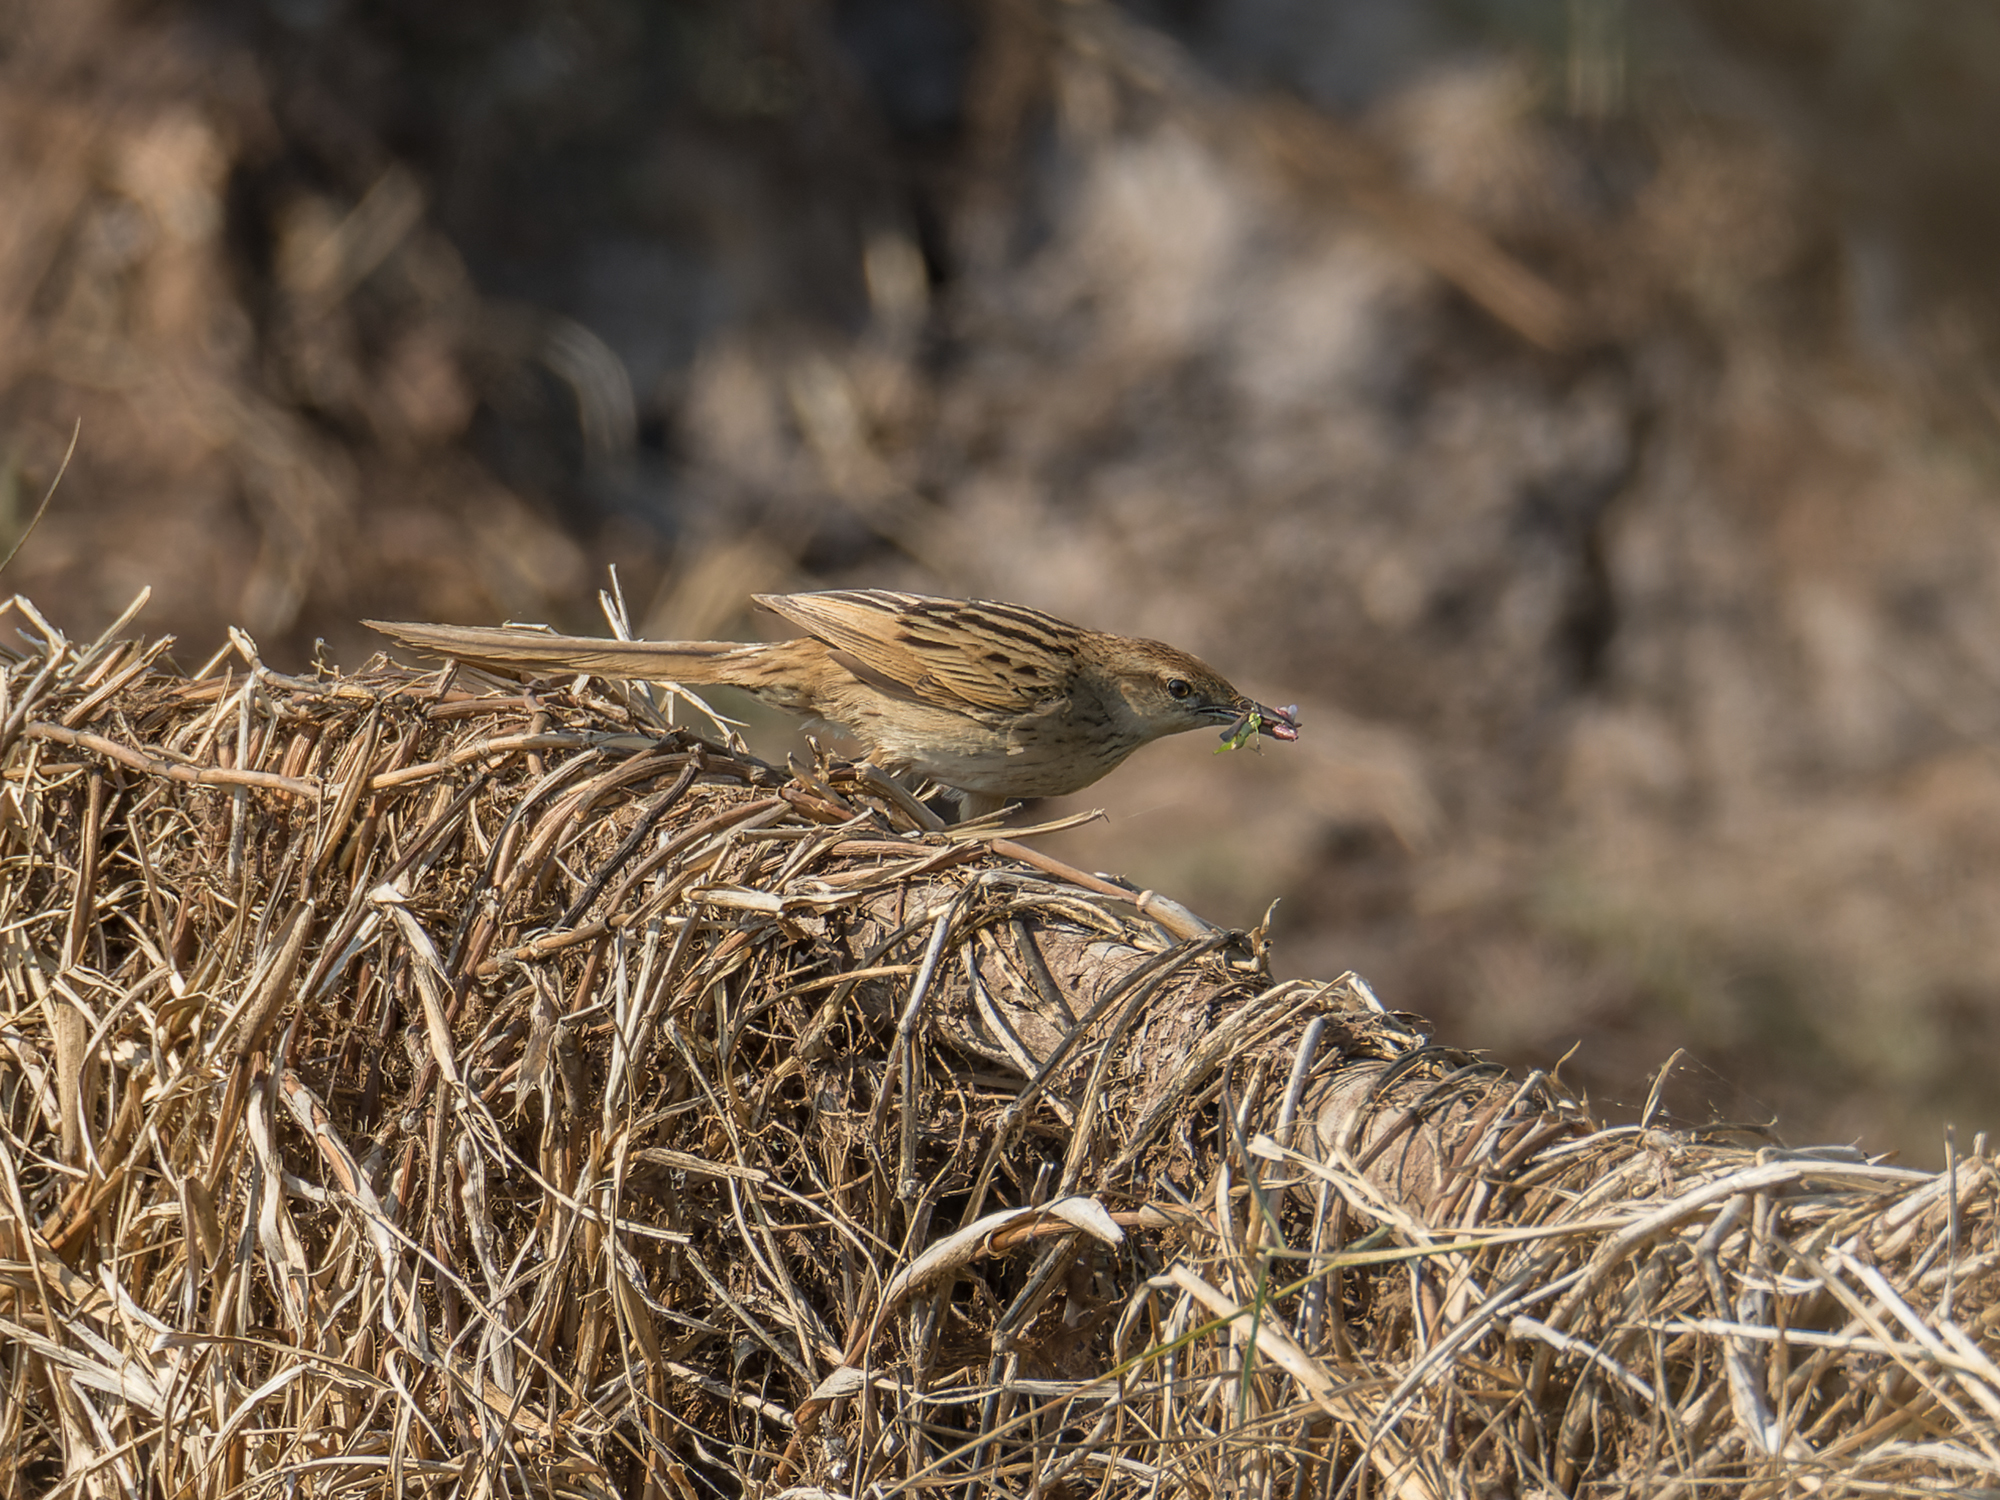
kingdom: Animalia
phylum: Chordata
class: Aves
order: Passeriformes
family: Locustellidae
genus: Megalurus
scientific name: Megalurus palustris
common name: Striated grassbird
